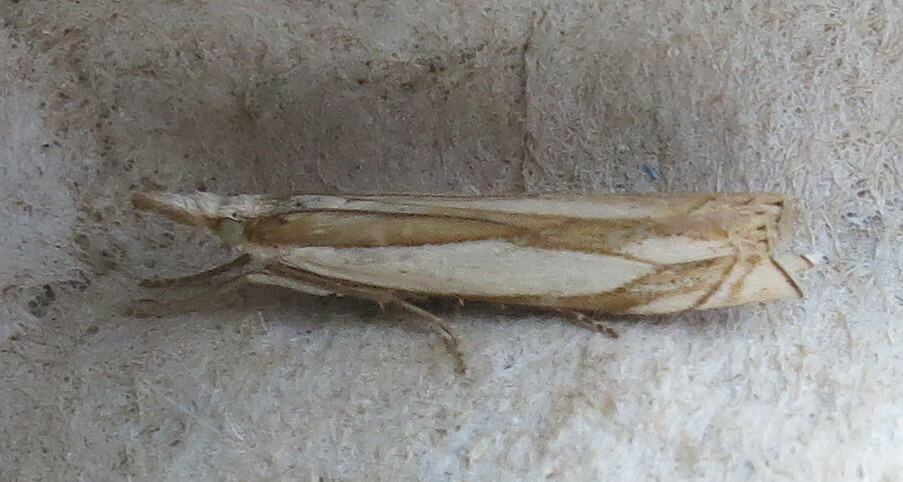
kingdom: Animalia
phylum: Arthropoda
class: Insecta
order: Lepidoptera
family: Crambidae
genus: Crambus
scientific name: Crambus pascuella
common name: Inlaid grass-veneer
